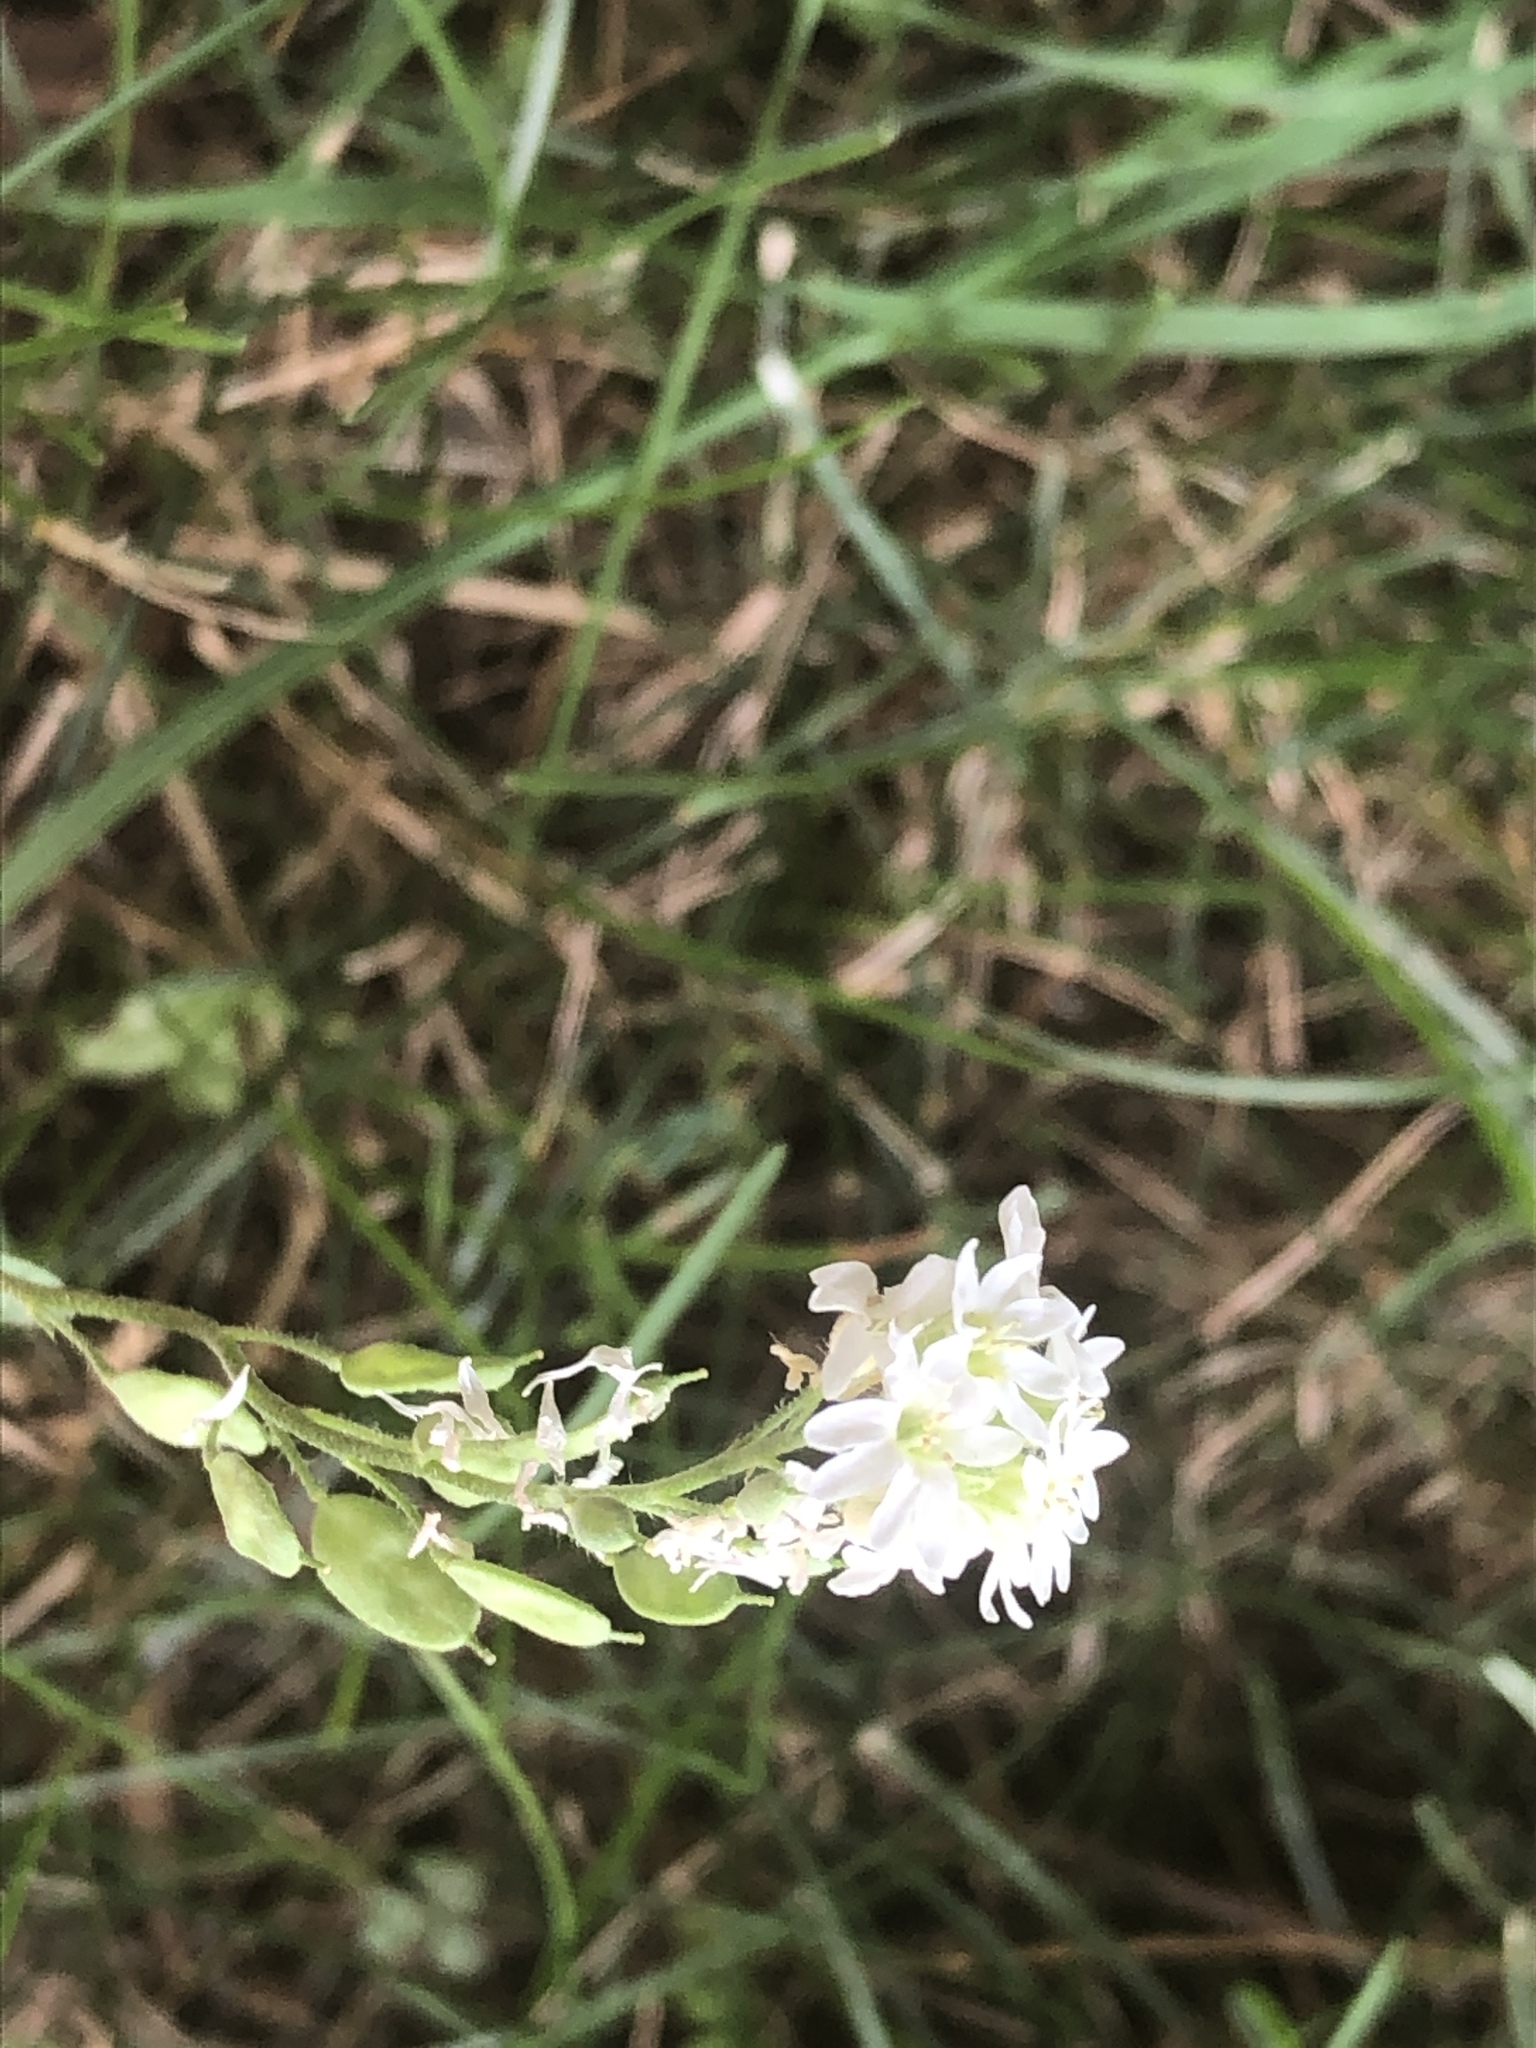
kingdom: Plantae
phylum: Tracheophyta
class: Magnoliopsida
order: Brassicales
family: Brassicaceae
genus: Berteroa
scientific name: Berteroa incana
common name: Hoary alison
